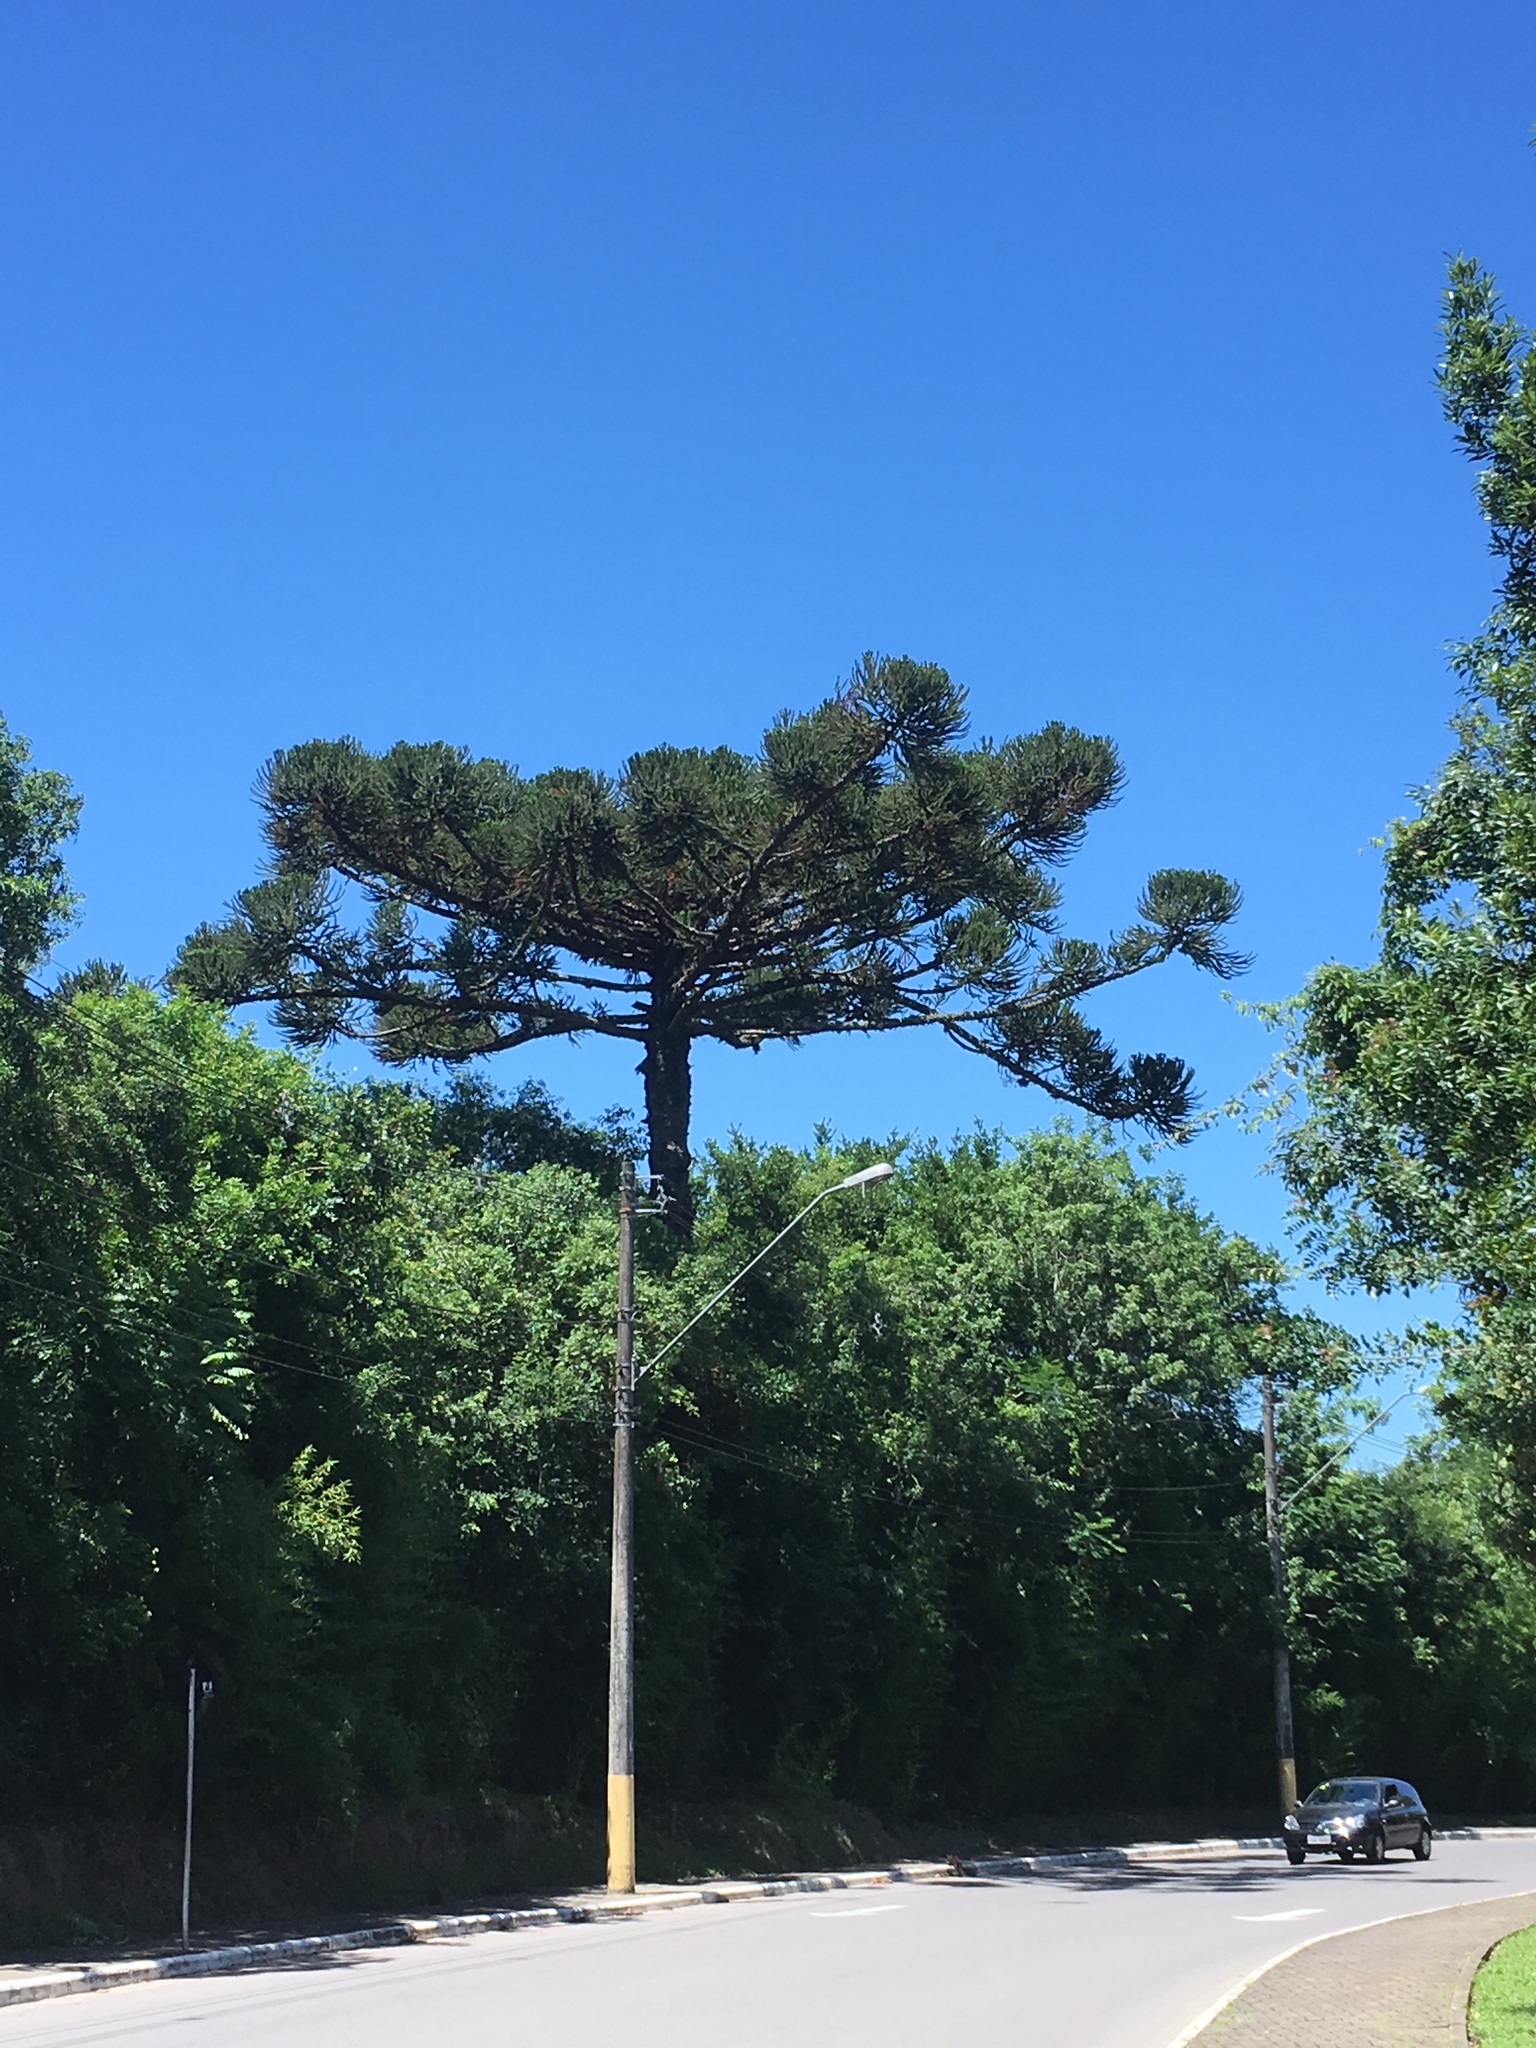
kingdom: Plantae
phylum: Tracheophyta
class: Pinopsida
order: Pinales
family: Araucariaceae
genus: Araucaria
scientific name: Araucaria angustifolia
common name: Candelabra tree
